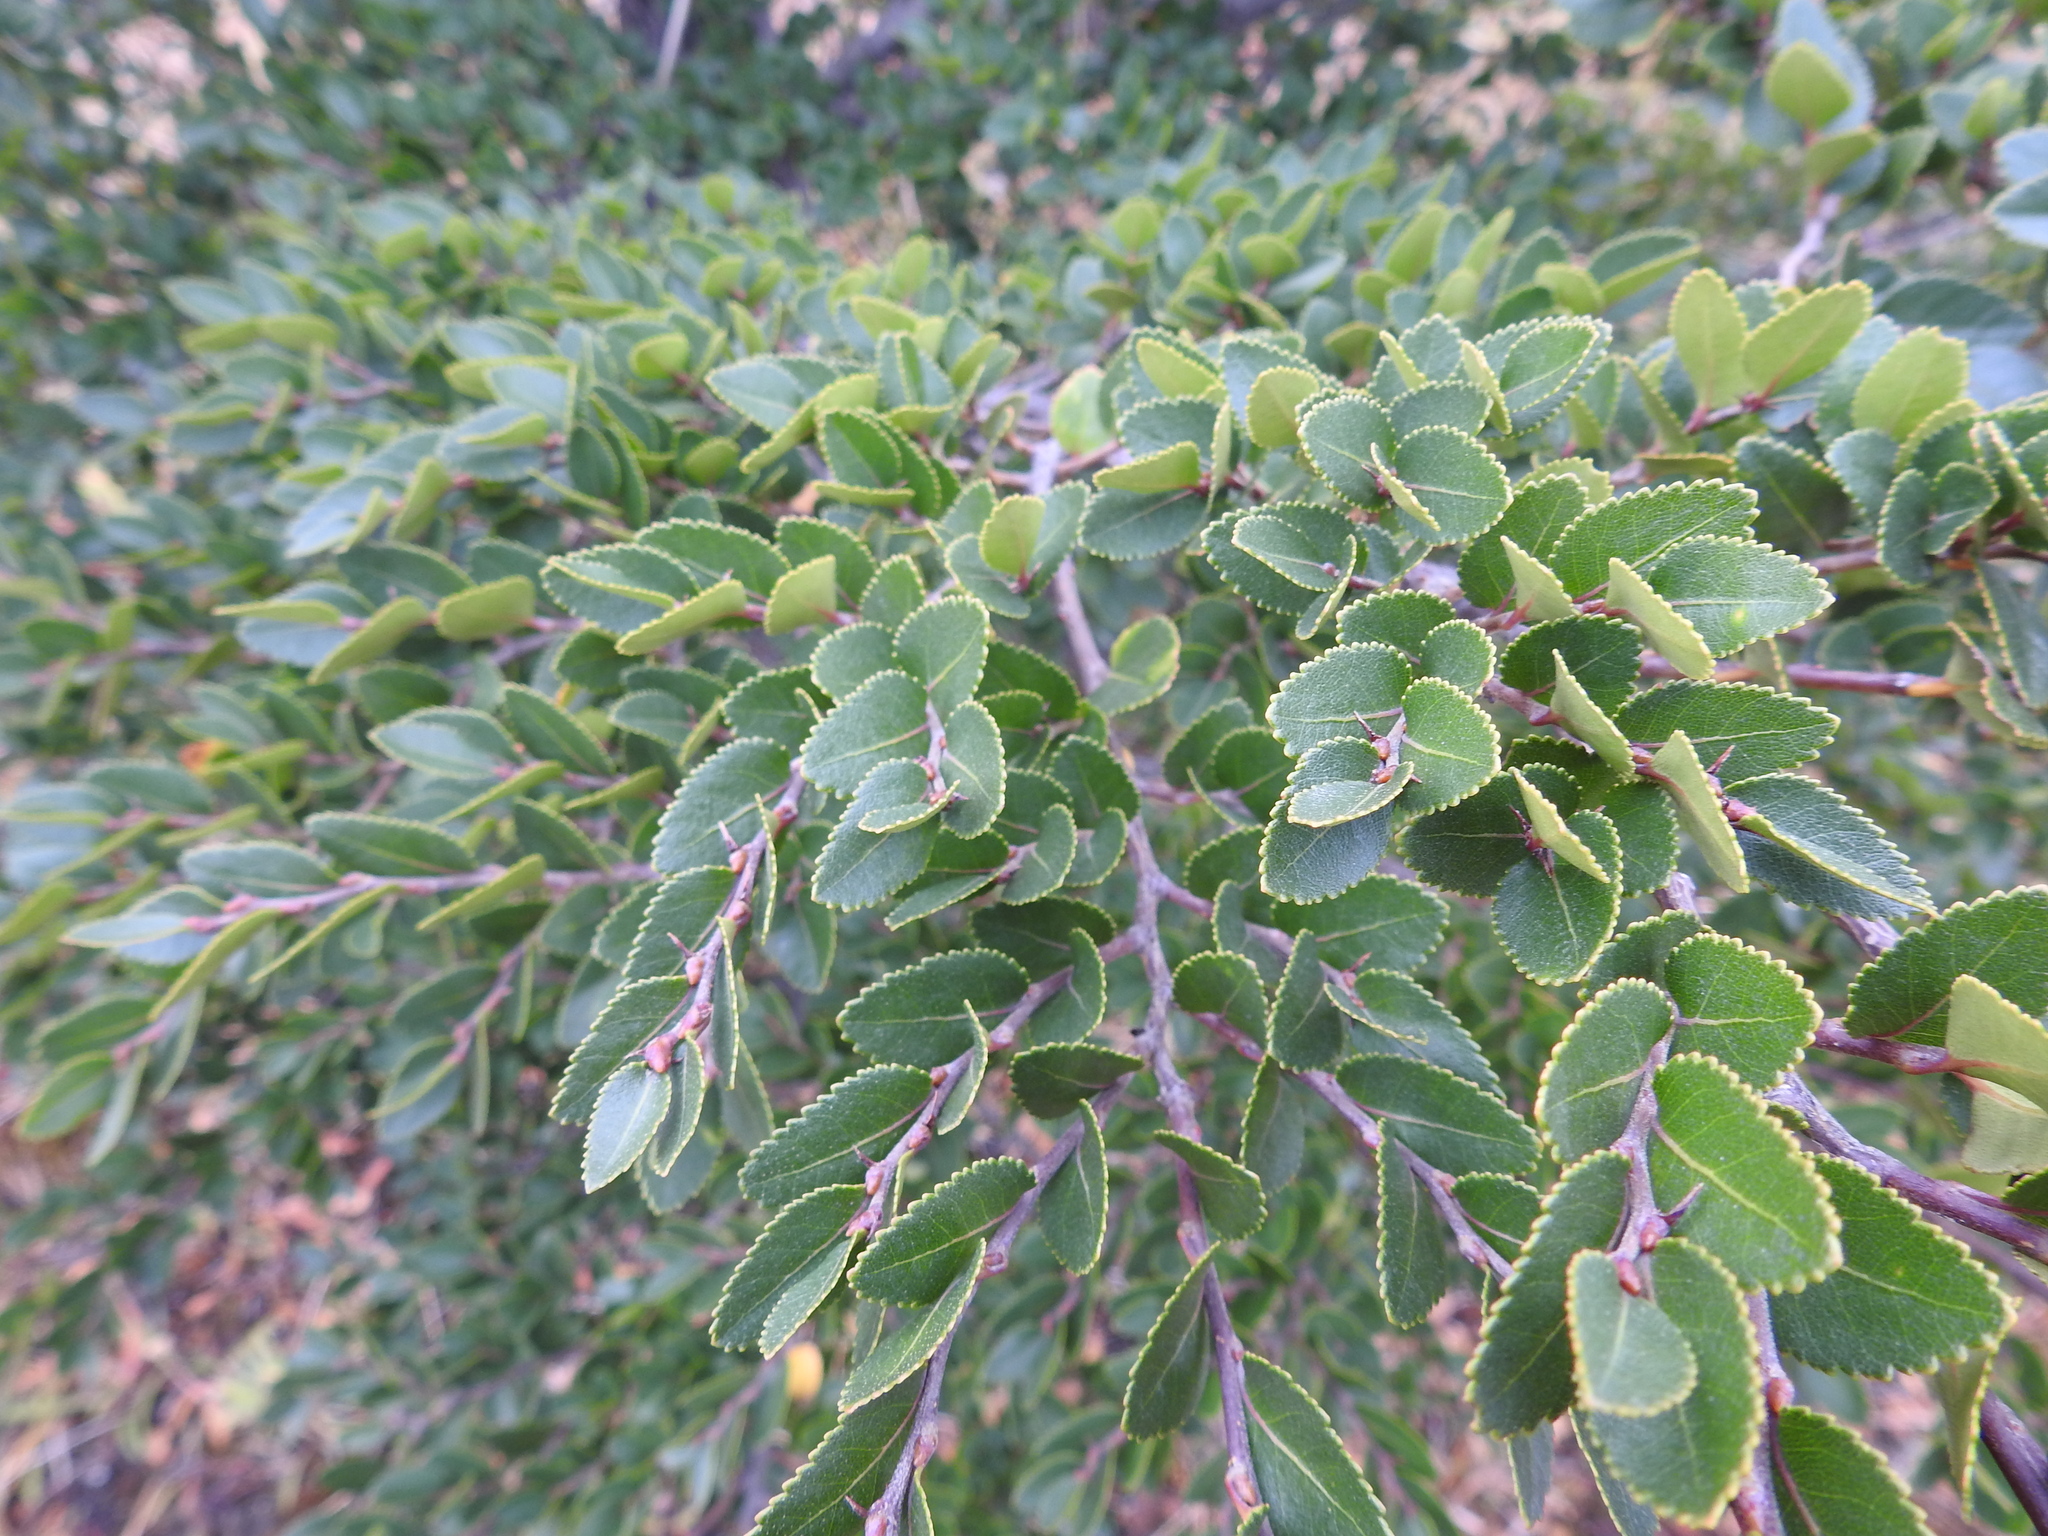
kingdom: Plantae
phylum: Tracheophyta
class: Magnoliopsida
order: Fagales
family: Nothofagaceae
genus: Nothofagus
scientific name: Nothofagus betuloides
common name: Magellan's beech
